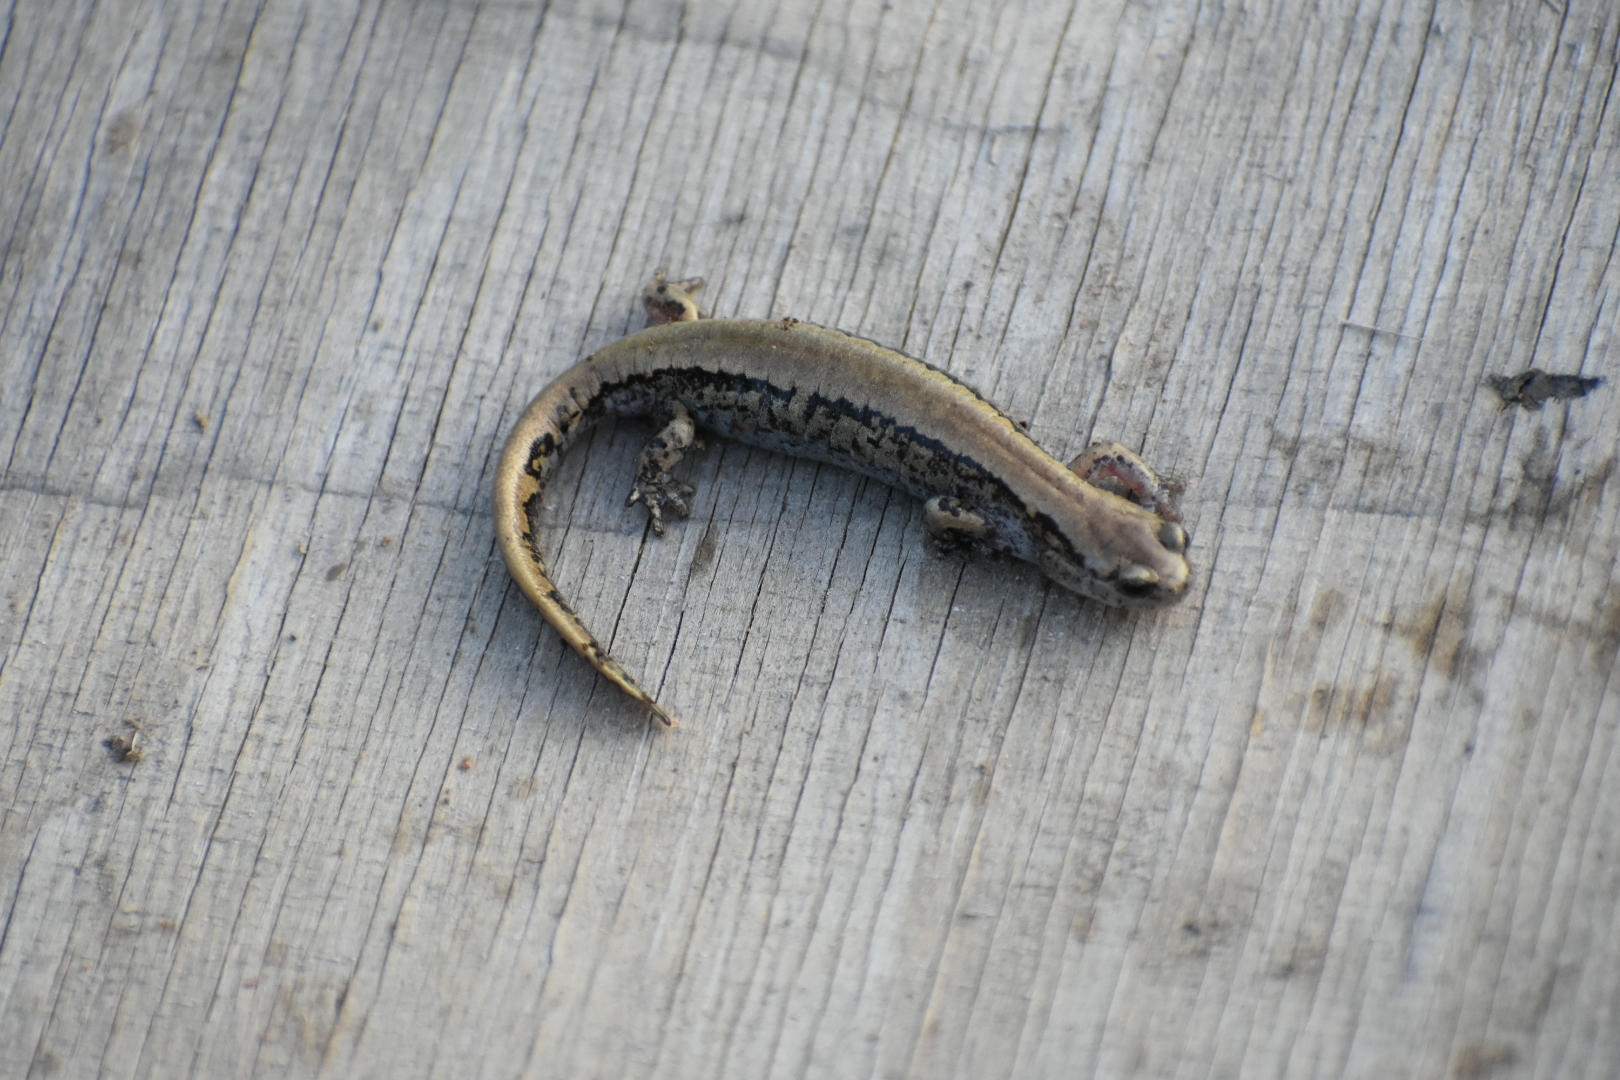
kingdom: Animalia
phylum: Chordata
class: Amphibia
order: Caudata
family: Hynobiidae
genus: Salamandrella
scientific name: Salamandrella keyserlingii
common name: Dybowski's salamander
